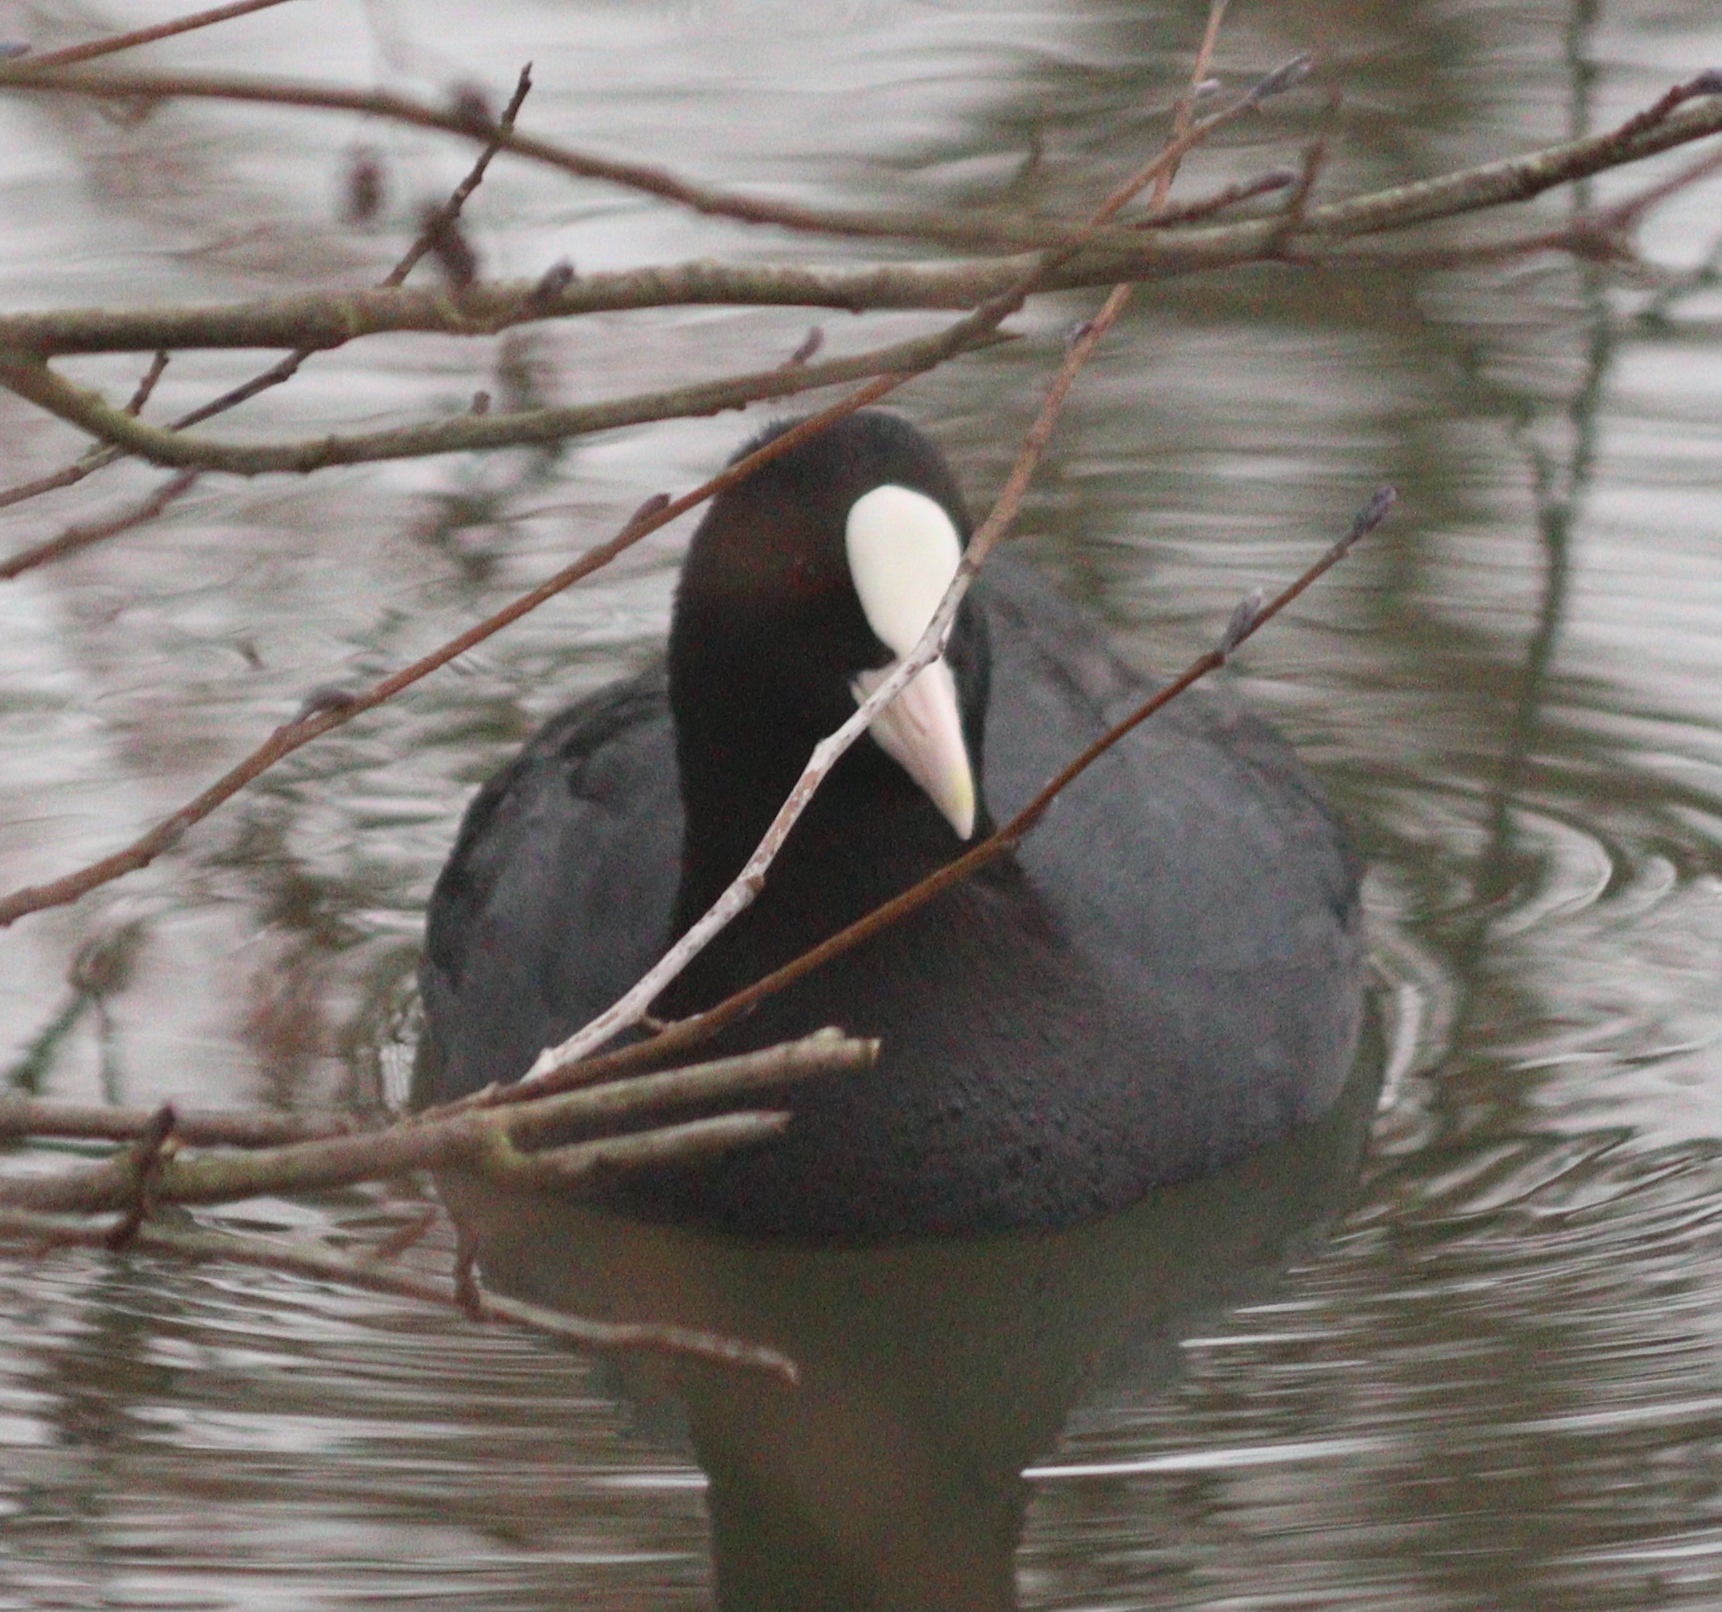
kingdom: Animalia
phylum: Chordata
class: Aves
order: Gruiformes
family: Rallidae
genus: Fulica
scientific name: Fulica atra
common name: Eurasian coot
